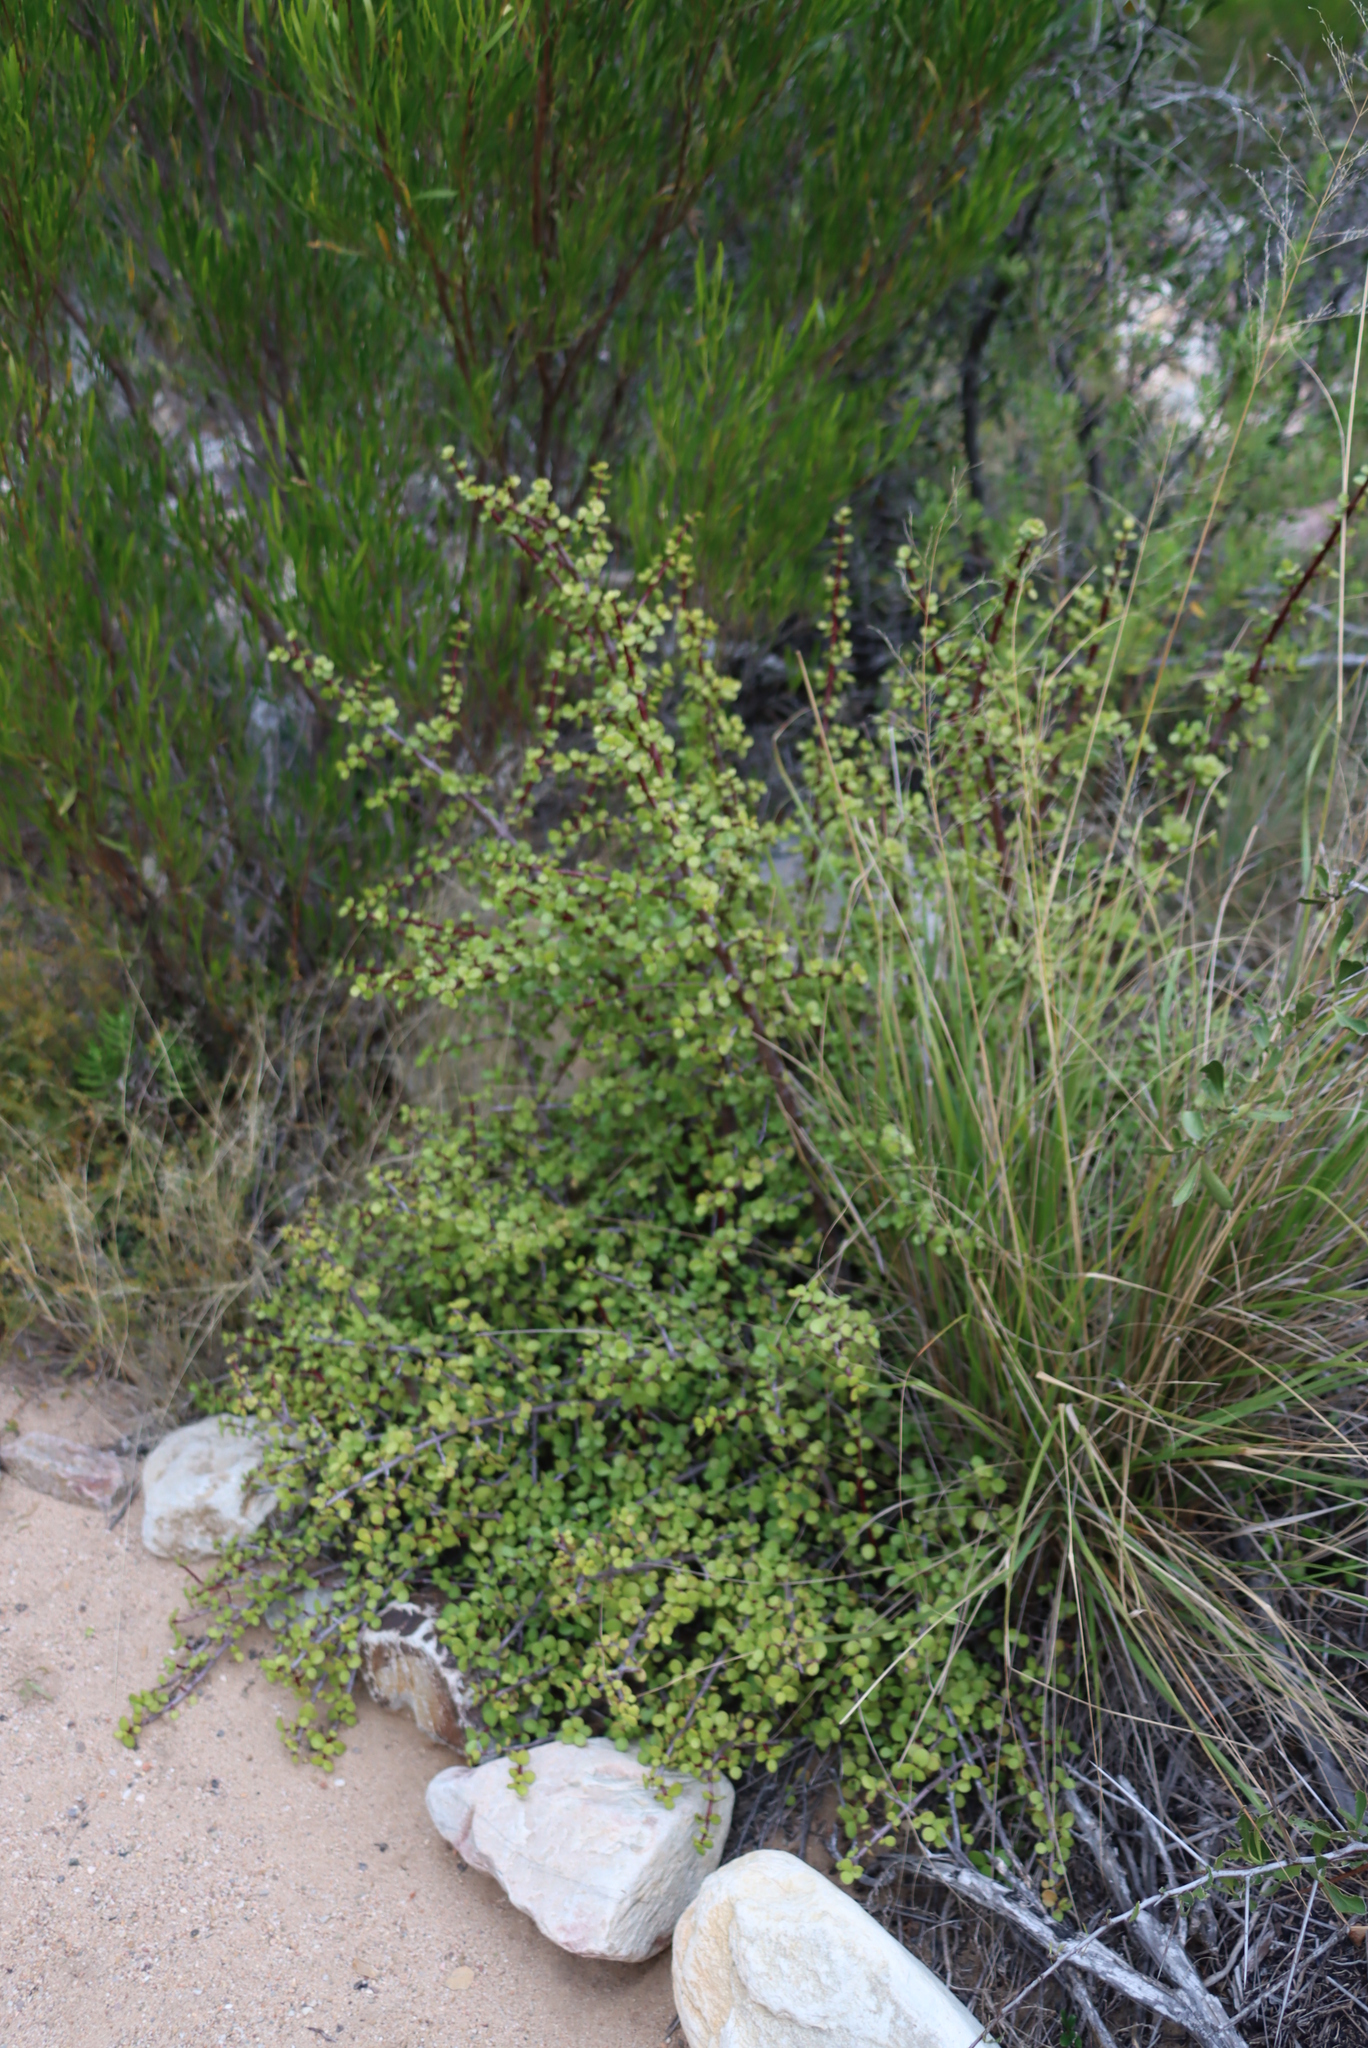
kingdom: Plantae
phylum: Tracheophyta
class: Magnoliopsida
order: Caryophyllales
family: Didiereaceae
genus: Portulacaria
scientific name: Portulacaria afra
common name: Elephant-bush
